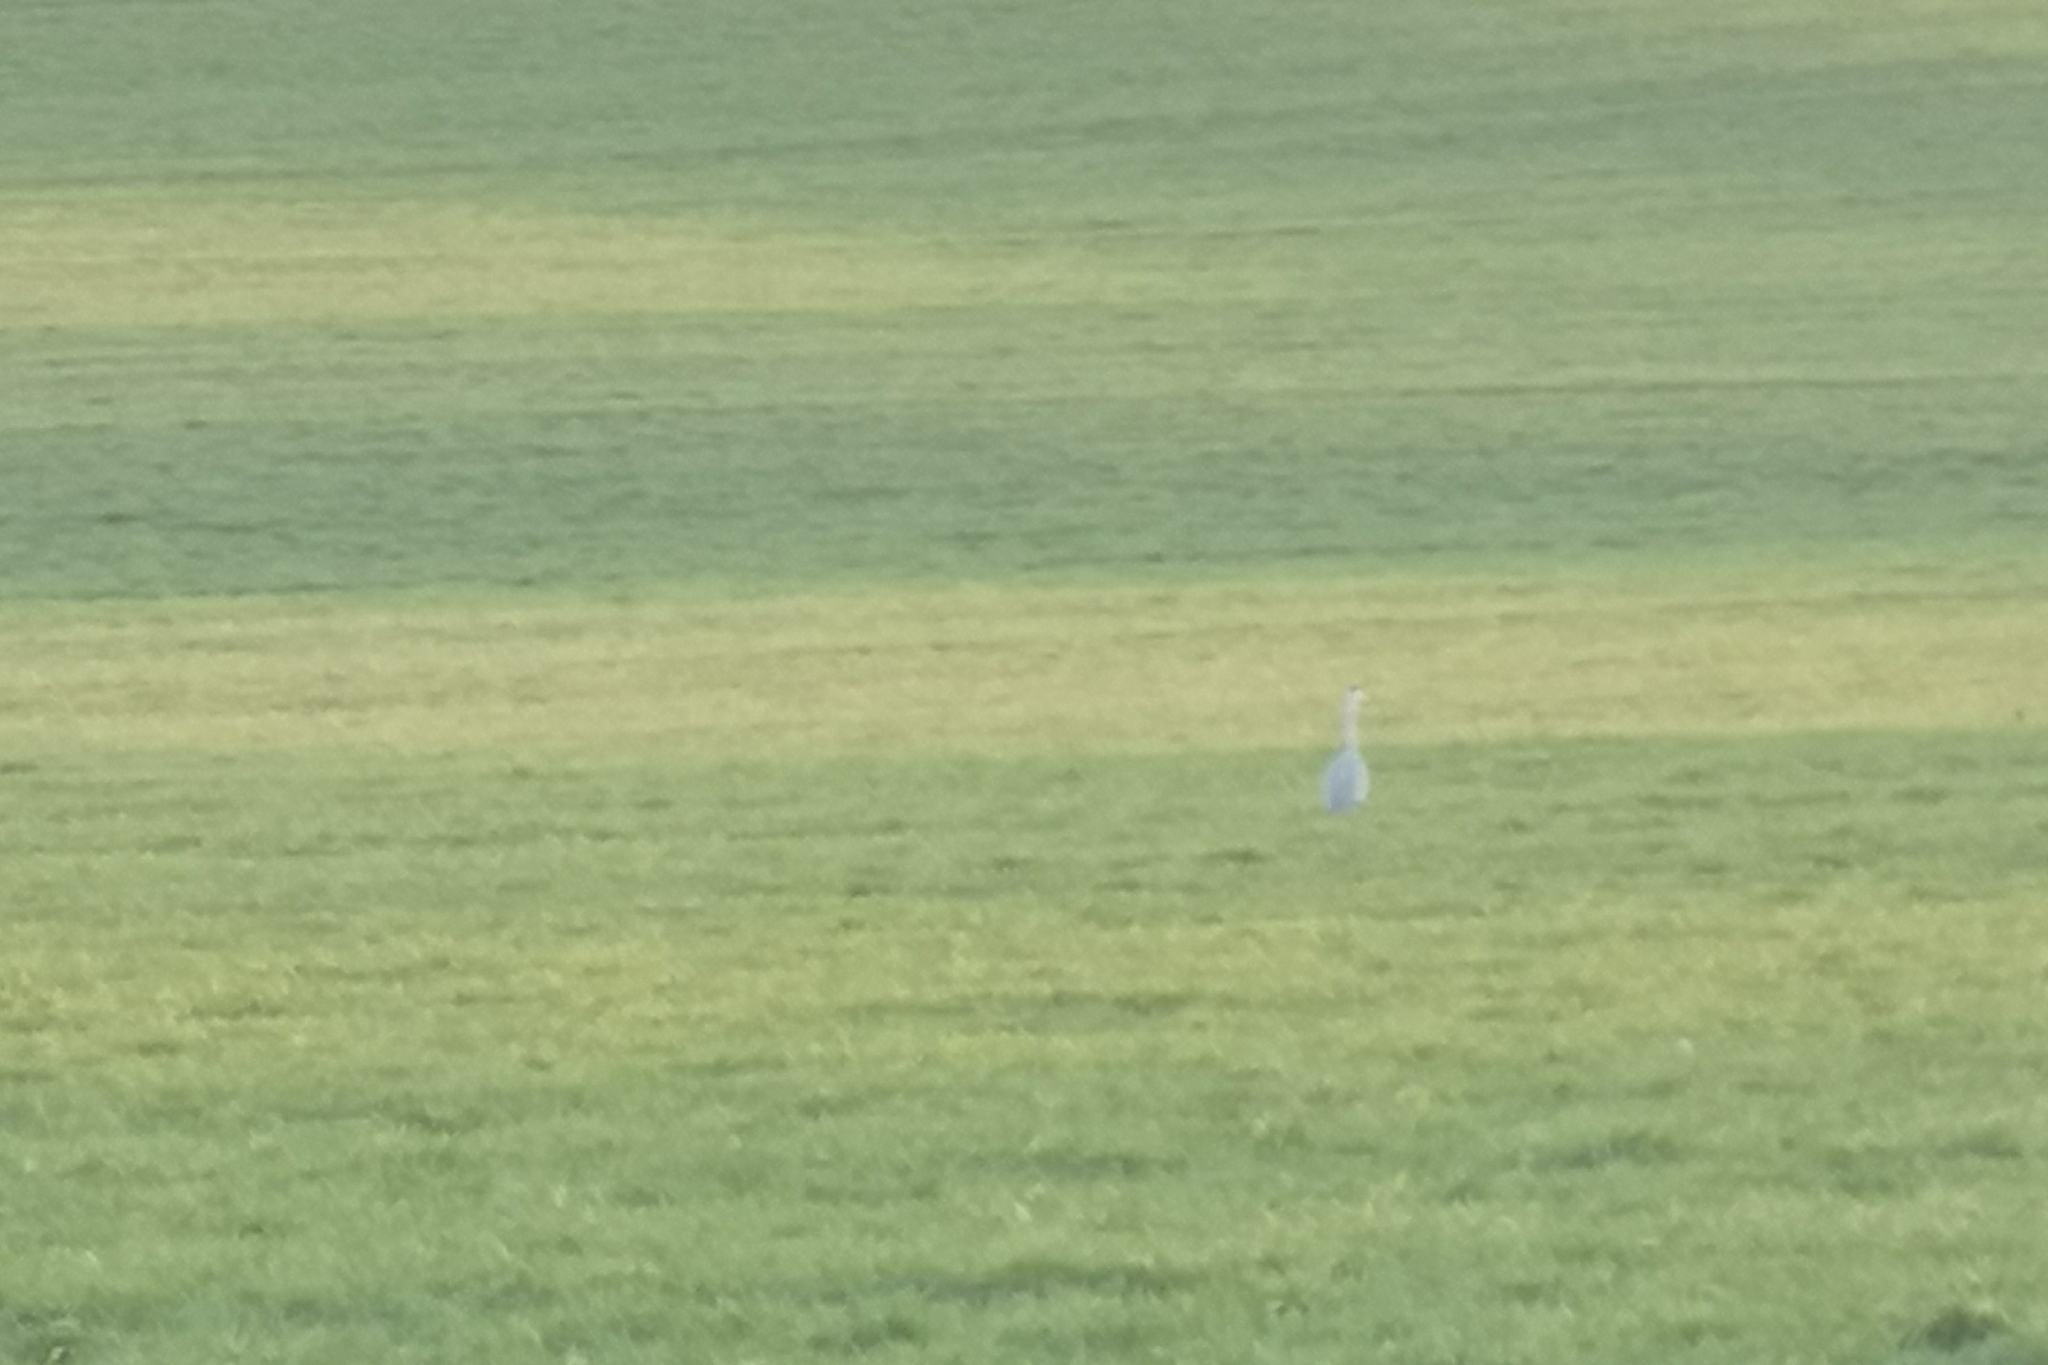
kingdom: Animalia
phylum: Chordata
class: Aves
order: Pelecaniformes
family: Ardeidae
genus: Ardea
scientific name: Ardea cinerea
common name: Grey heron
